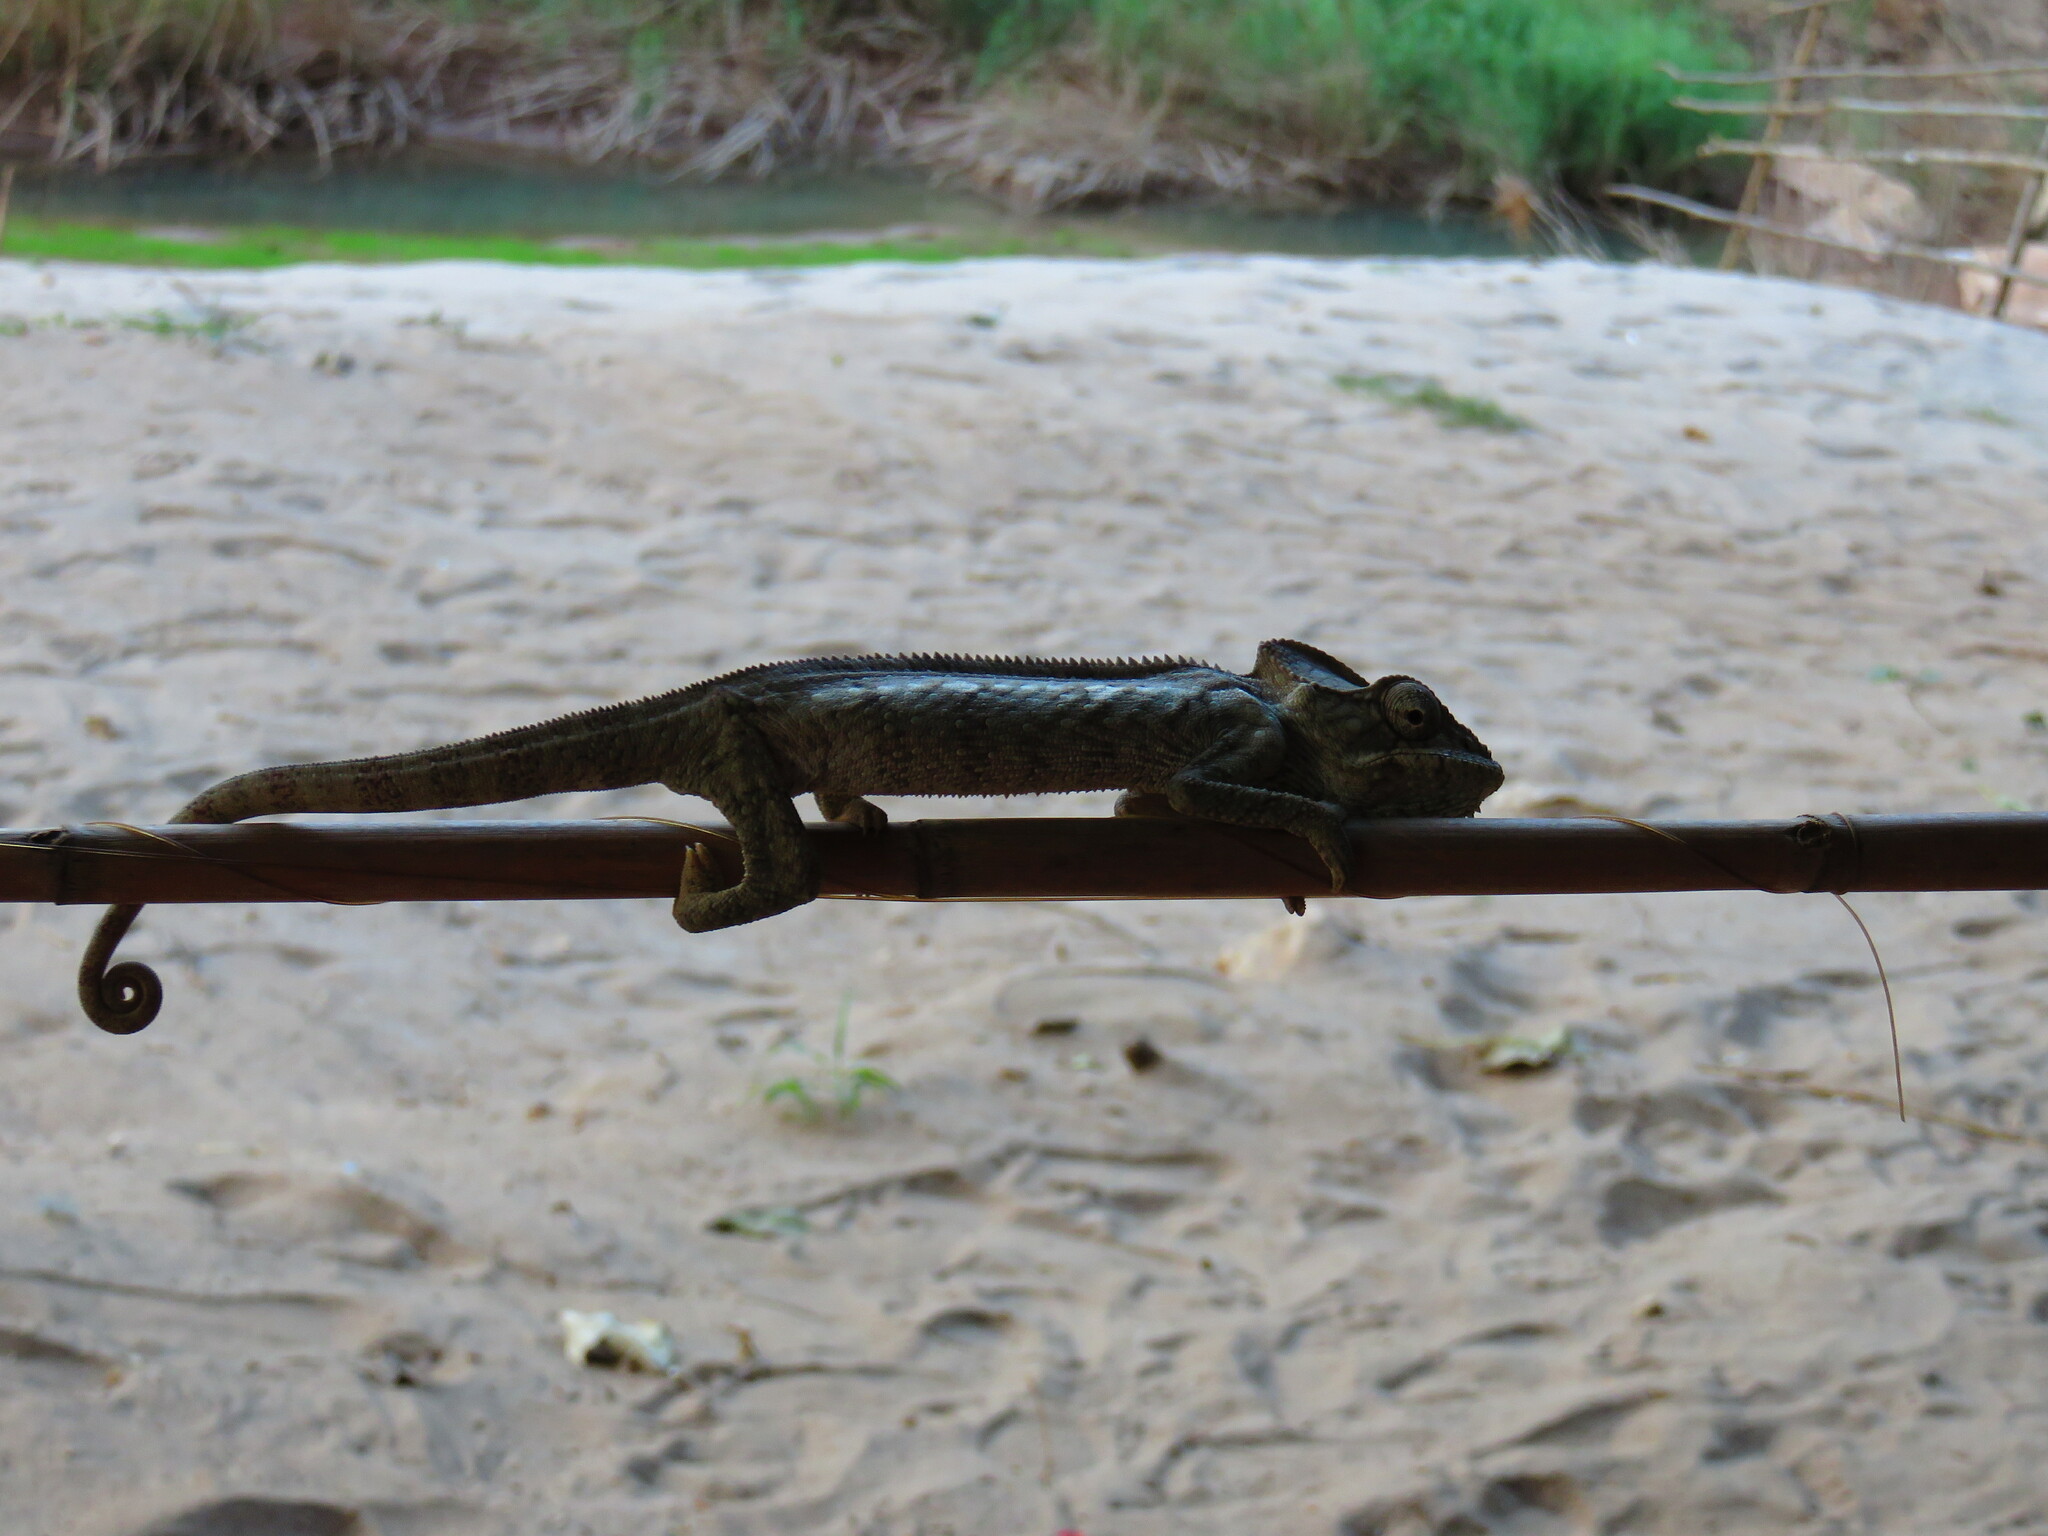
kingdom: Animalia
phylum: Chordata
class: Squamata
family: Chamaeleonidae
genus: Furcifer
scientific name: Furcifer oustaleti
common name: Oustalet's chameleon
